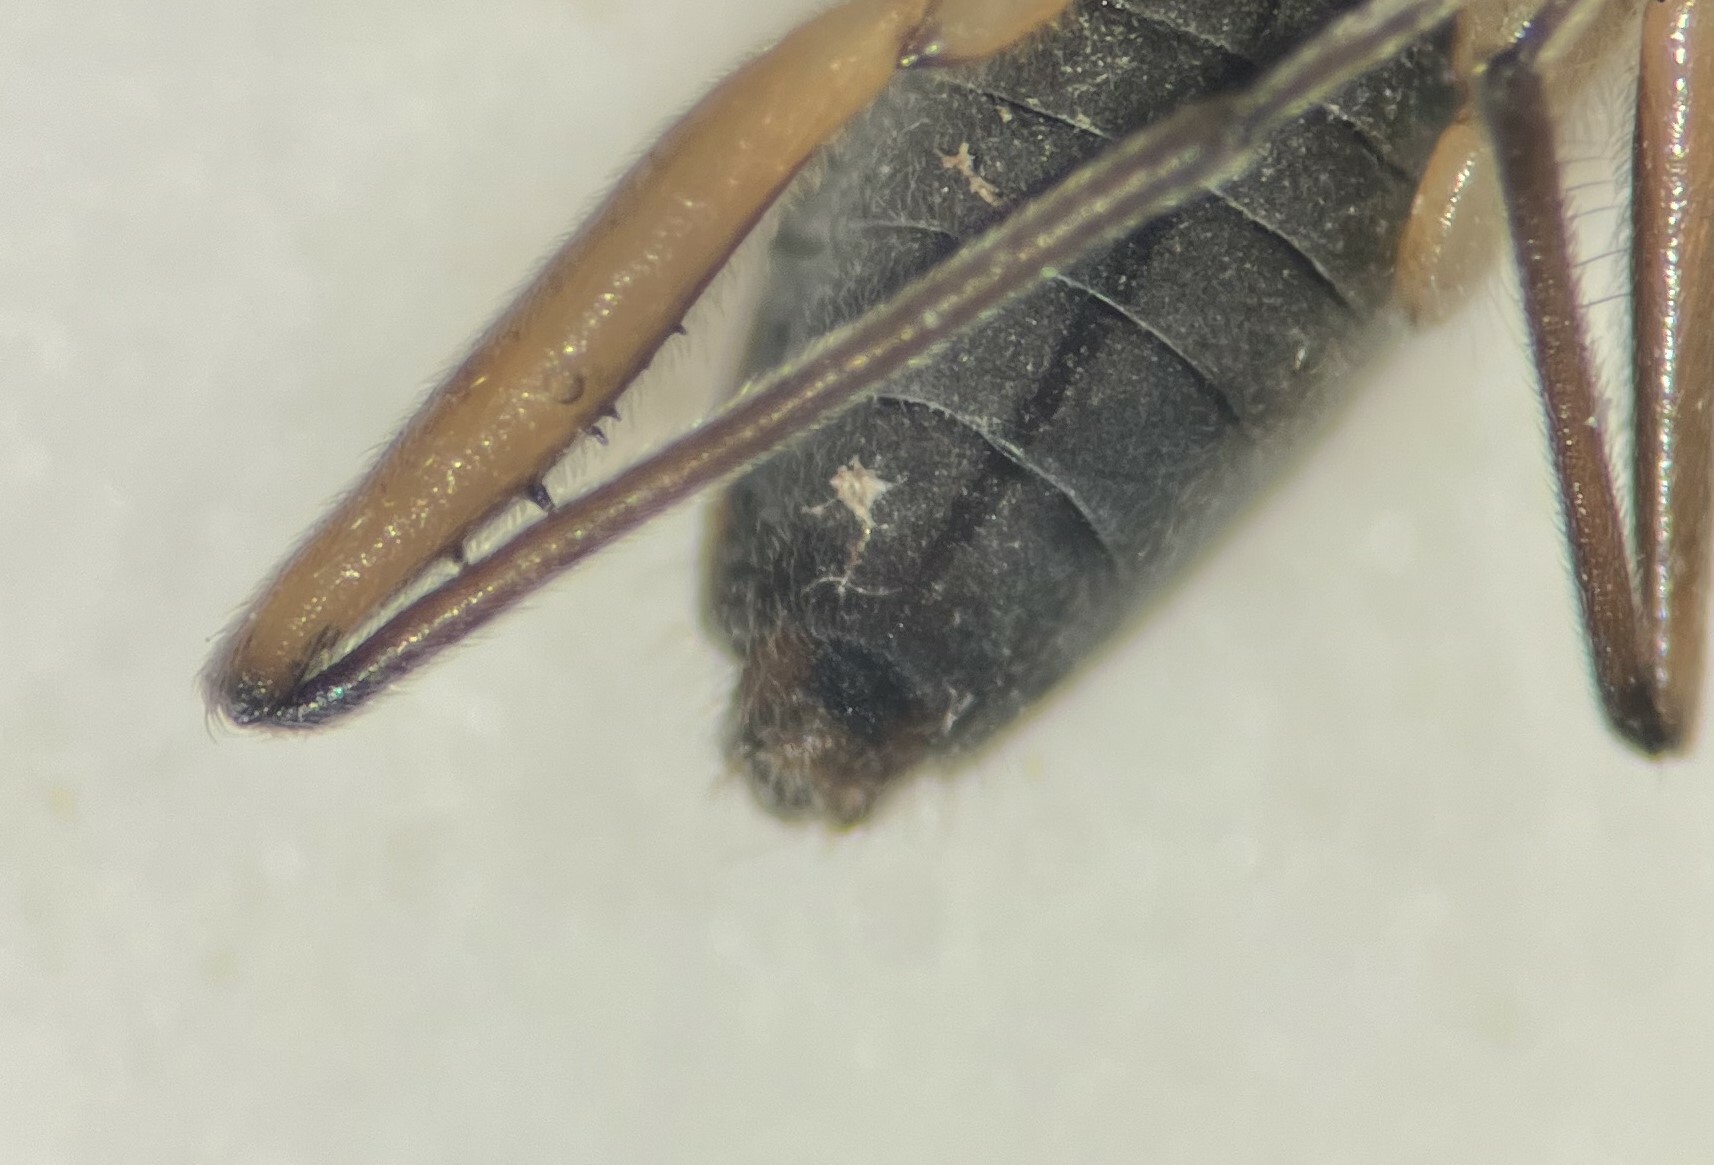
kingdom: Animalia
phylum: Arthropoda
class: Insecta
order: Hemiptera
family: Veliidae
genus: Microvelia
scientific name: Microvelia paludicola
